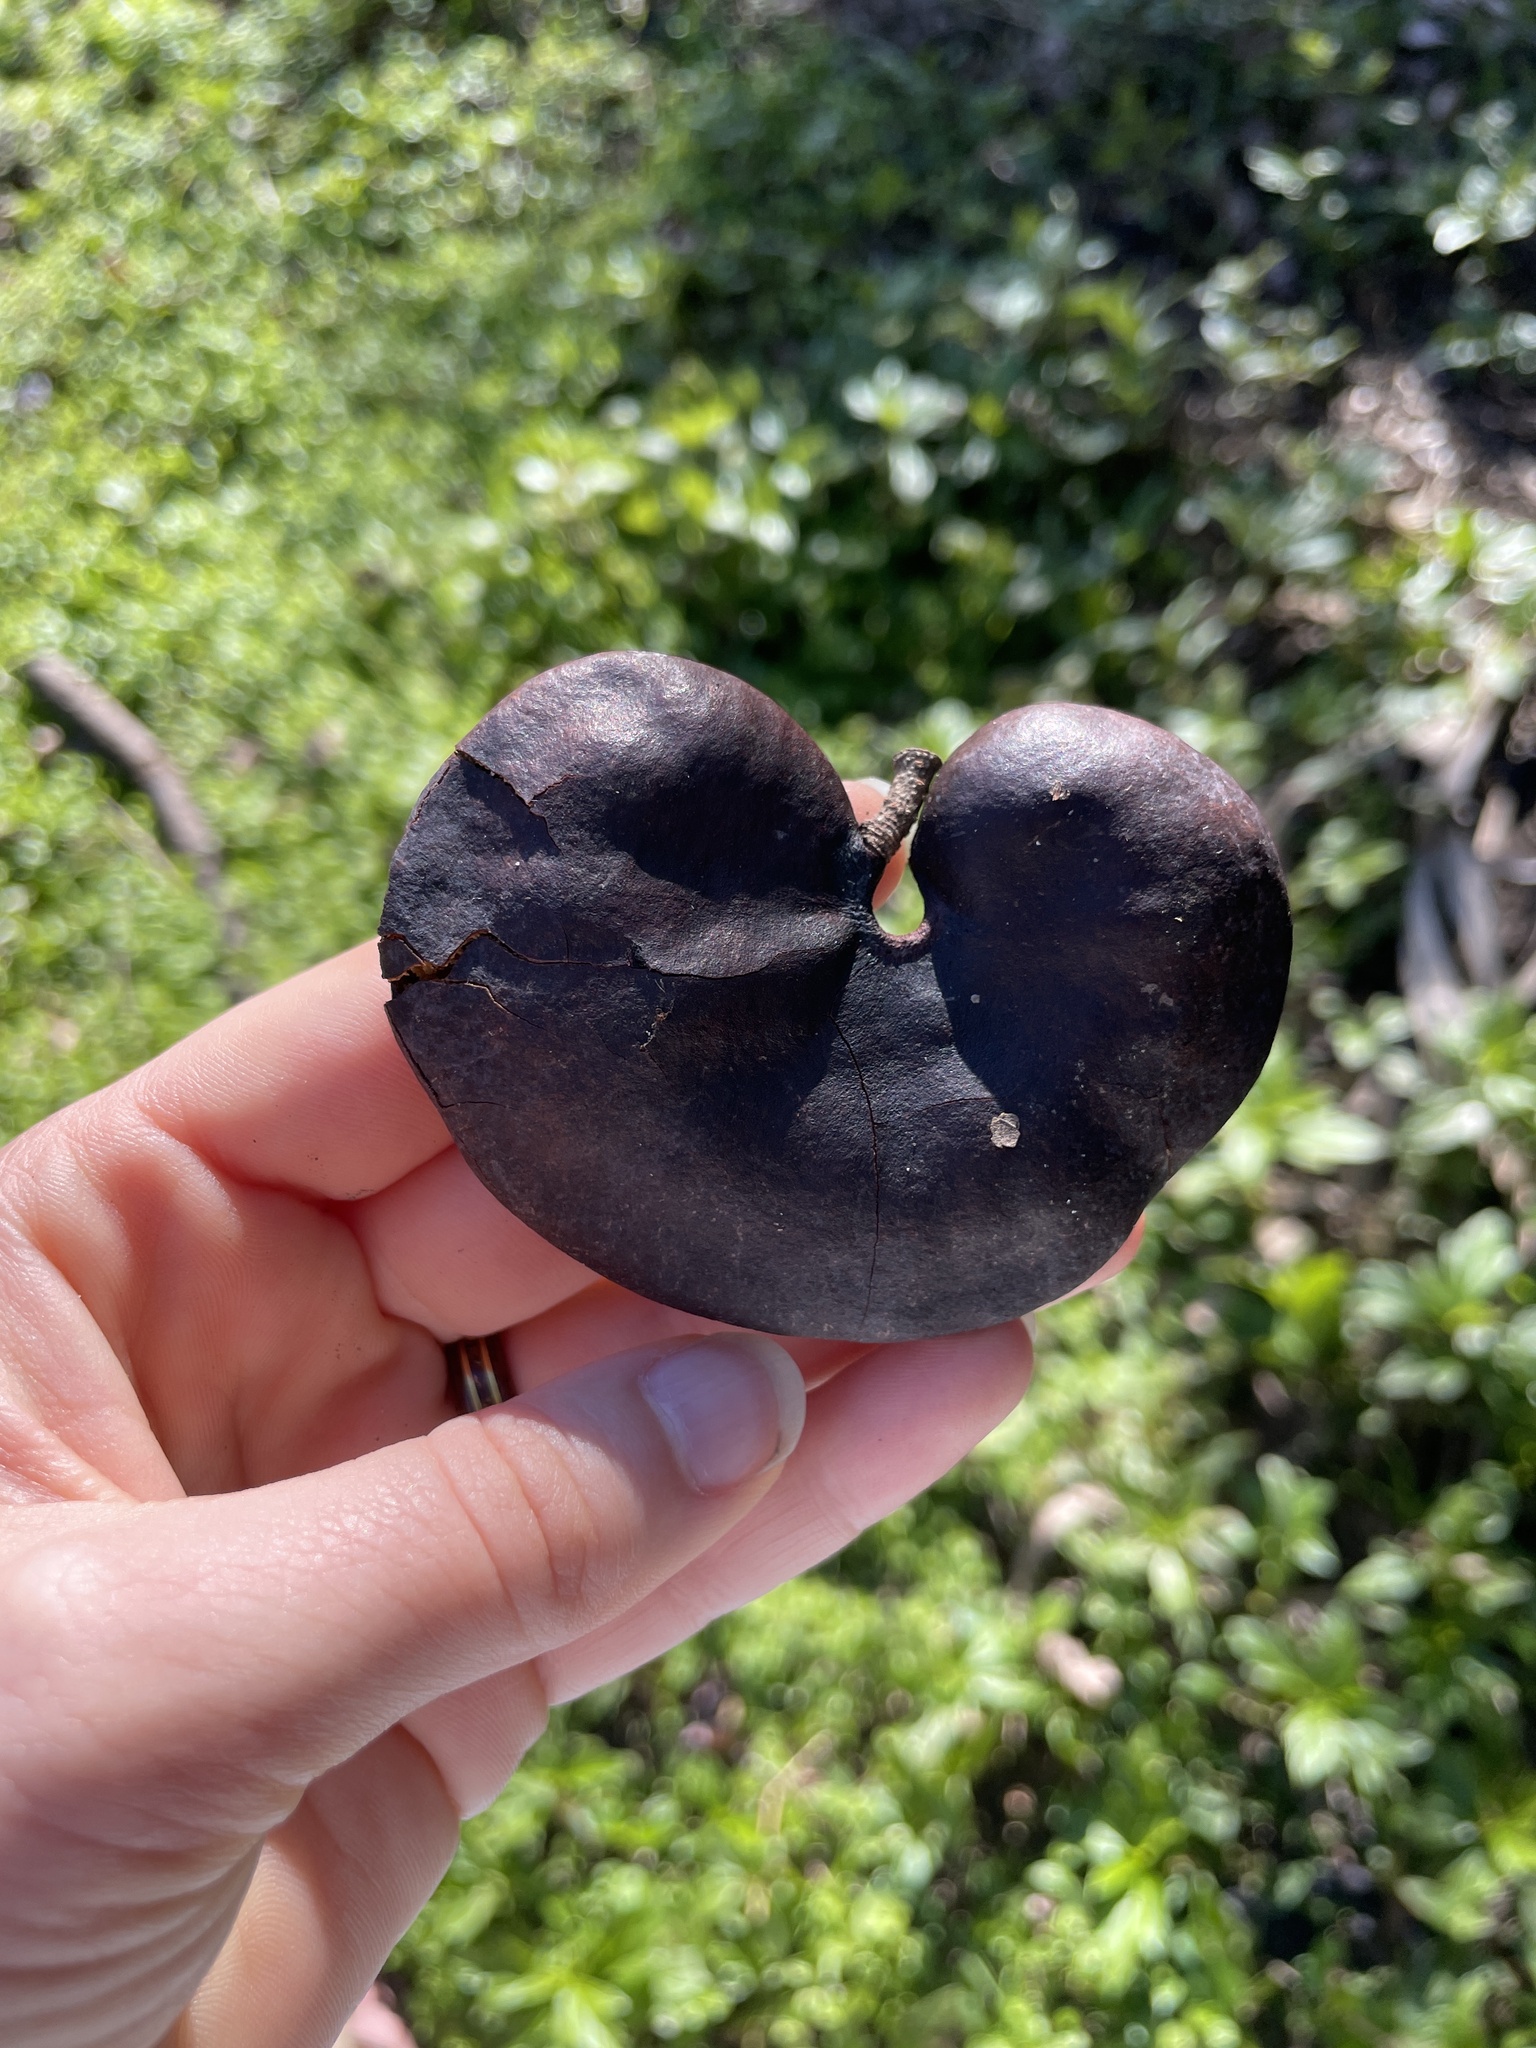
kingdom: Plantae
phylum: Tracheophyta
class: Magnoliopsida
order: Fabales
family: Fabaceae
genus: Enterolobium
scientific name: Enterolobium contortisiliquum
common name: Pacara earpod tree
